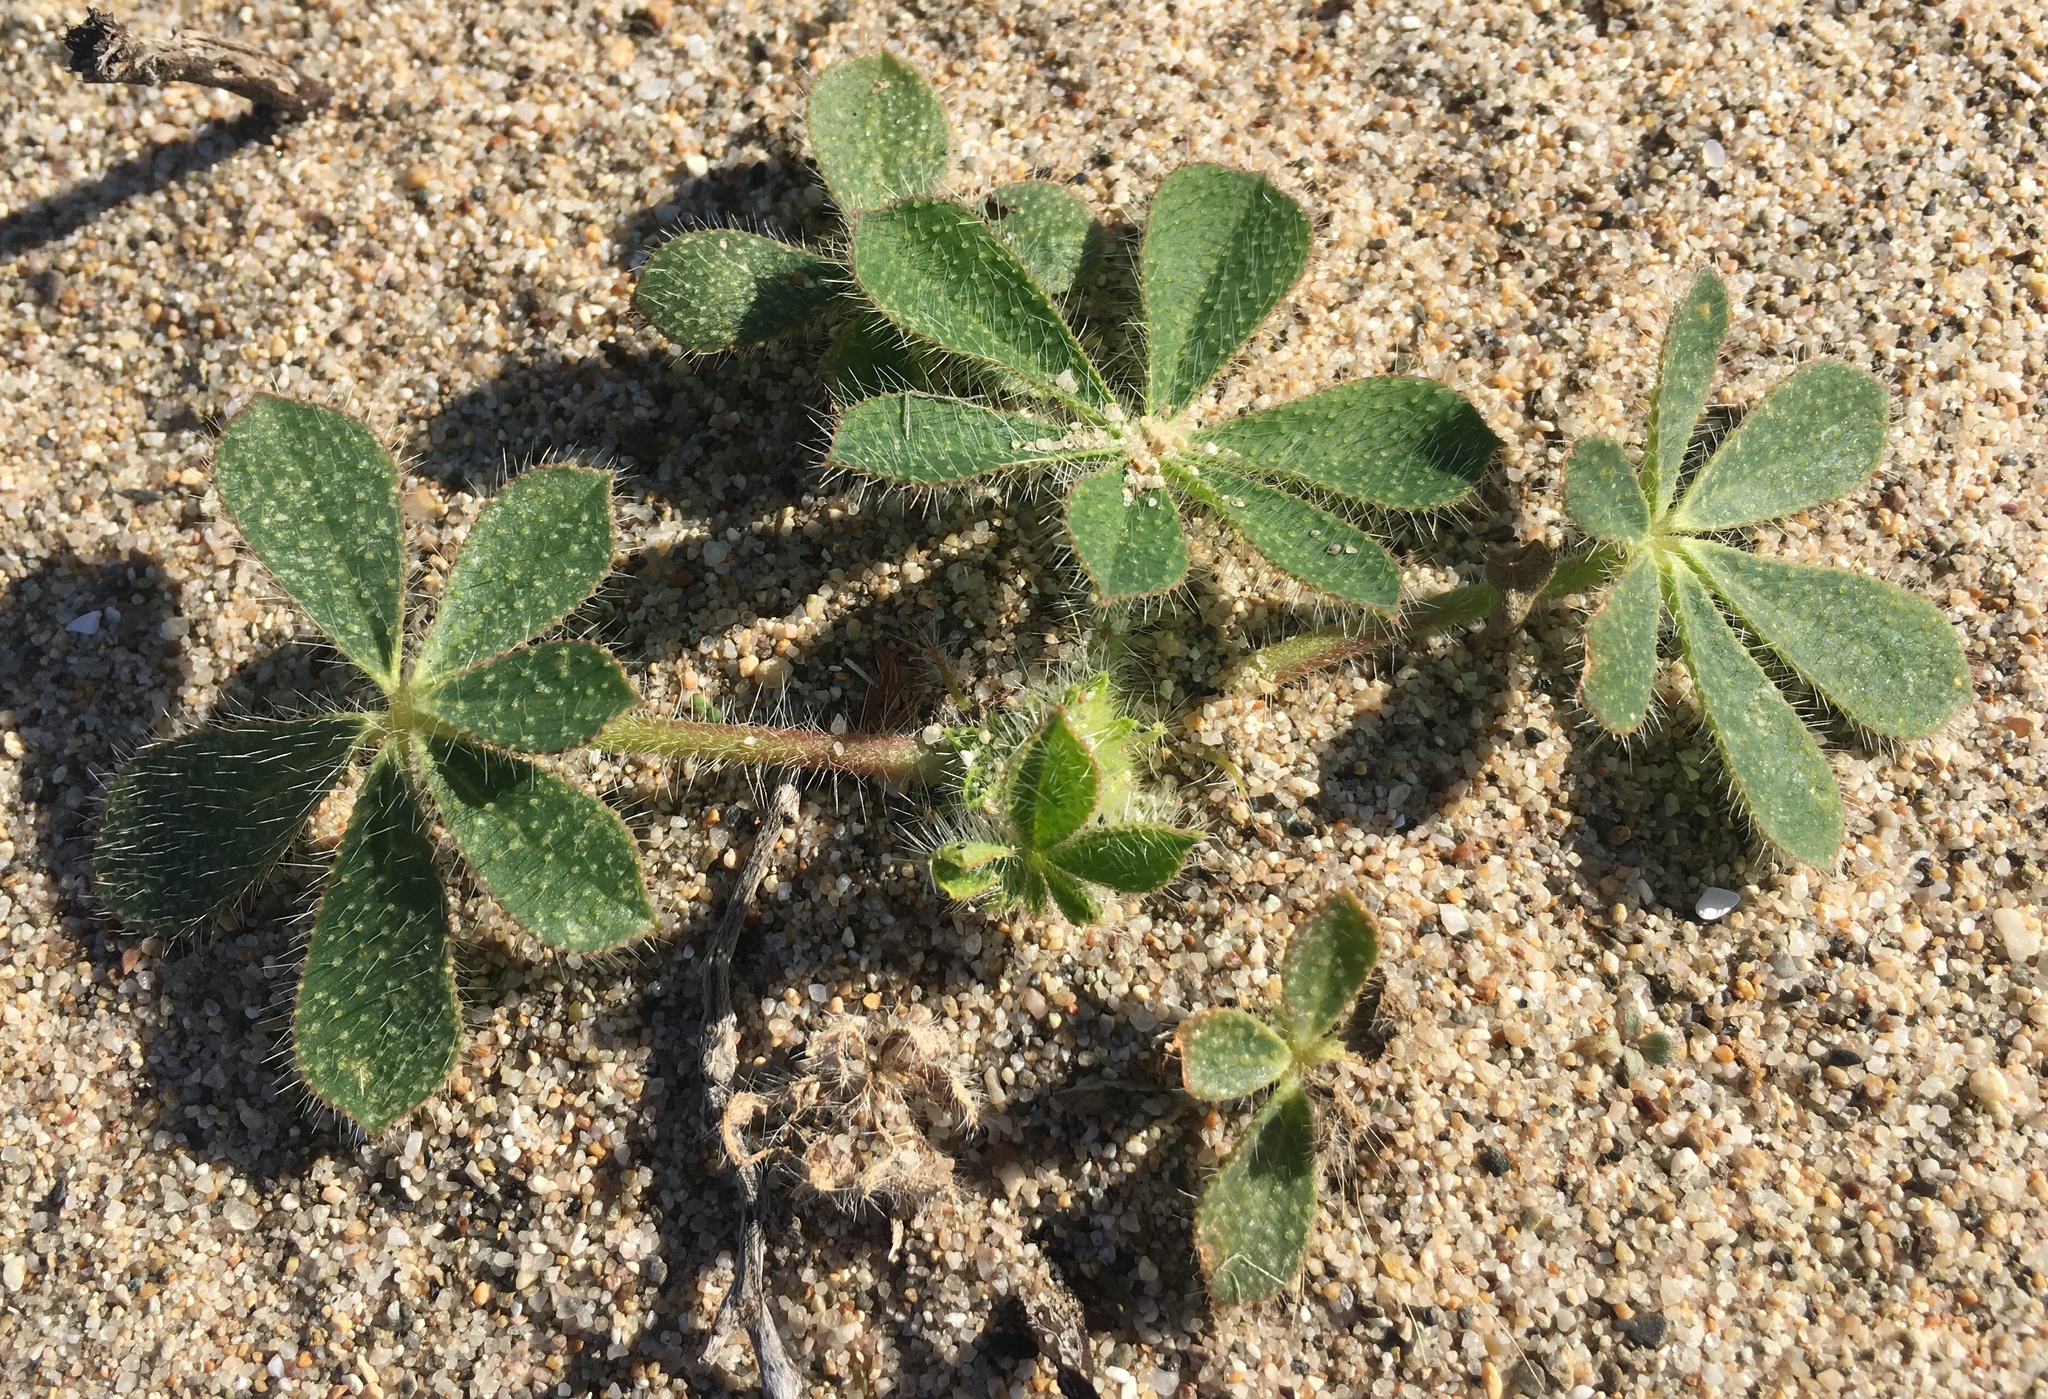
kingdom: Plantae
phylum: Tracheophyta
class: Magnoliopsida
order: Fabales
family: Fabaceae
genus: Lupinus
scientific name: Lupinus hirsutissimus
